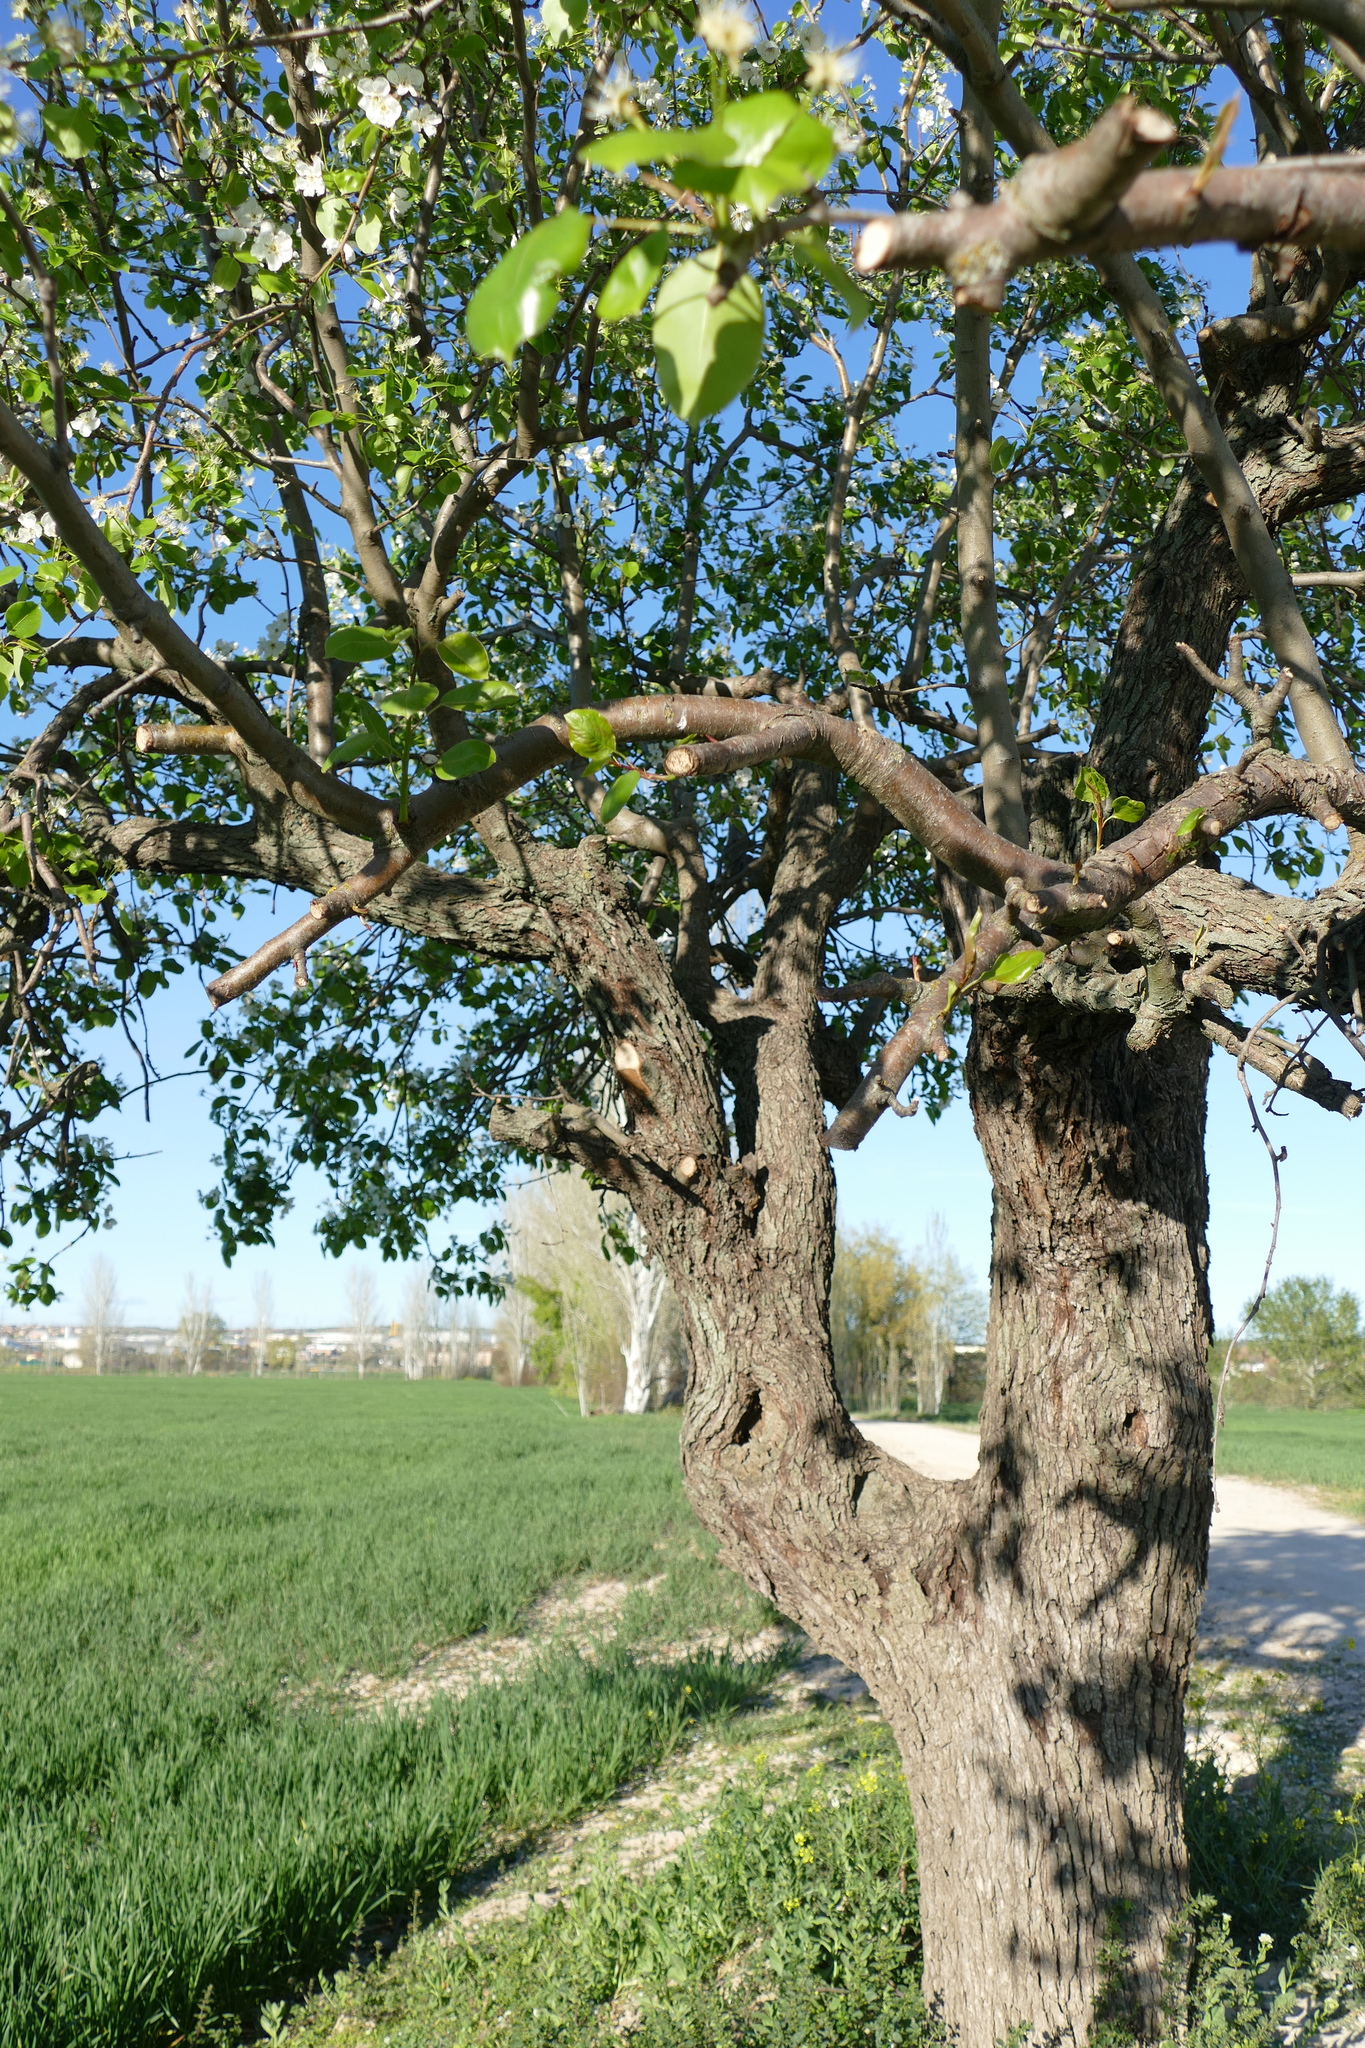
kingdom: Plantae
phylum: Tracheophyta
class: Magnoliopsida
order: Rosales
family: Rosaceae
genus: Pyrus
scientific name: Pyrus communis
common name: Pear
